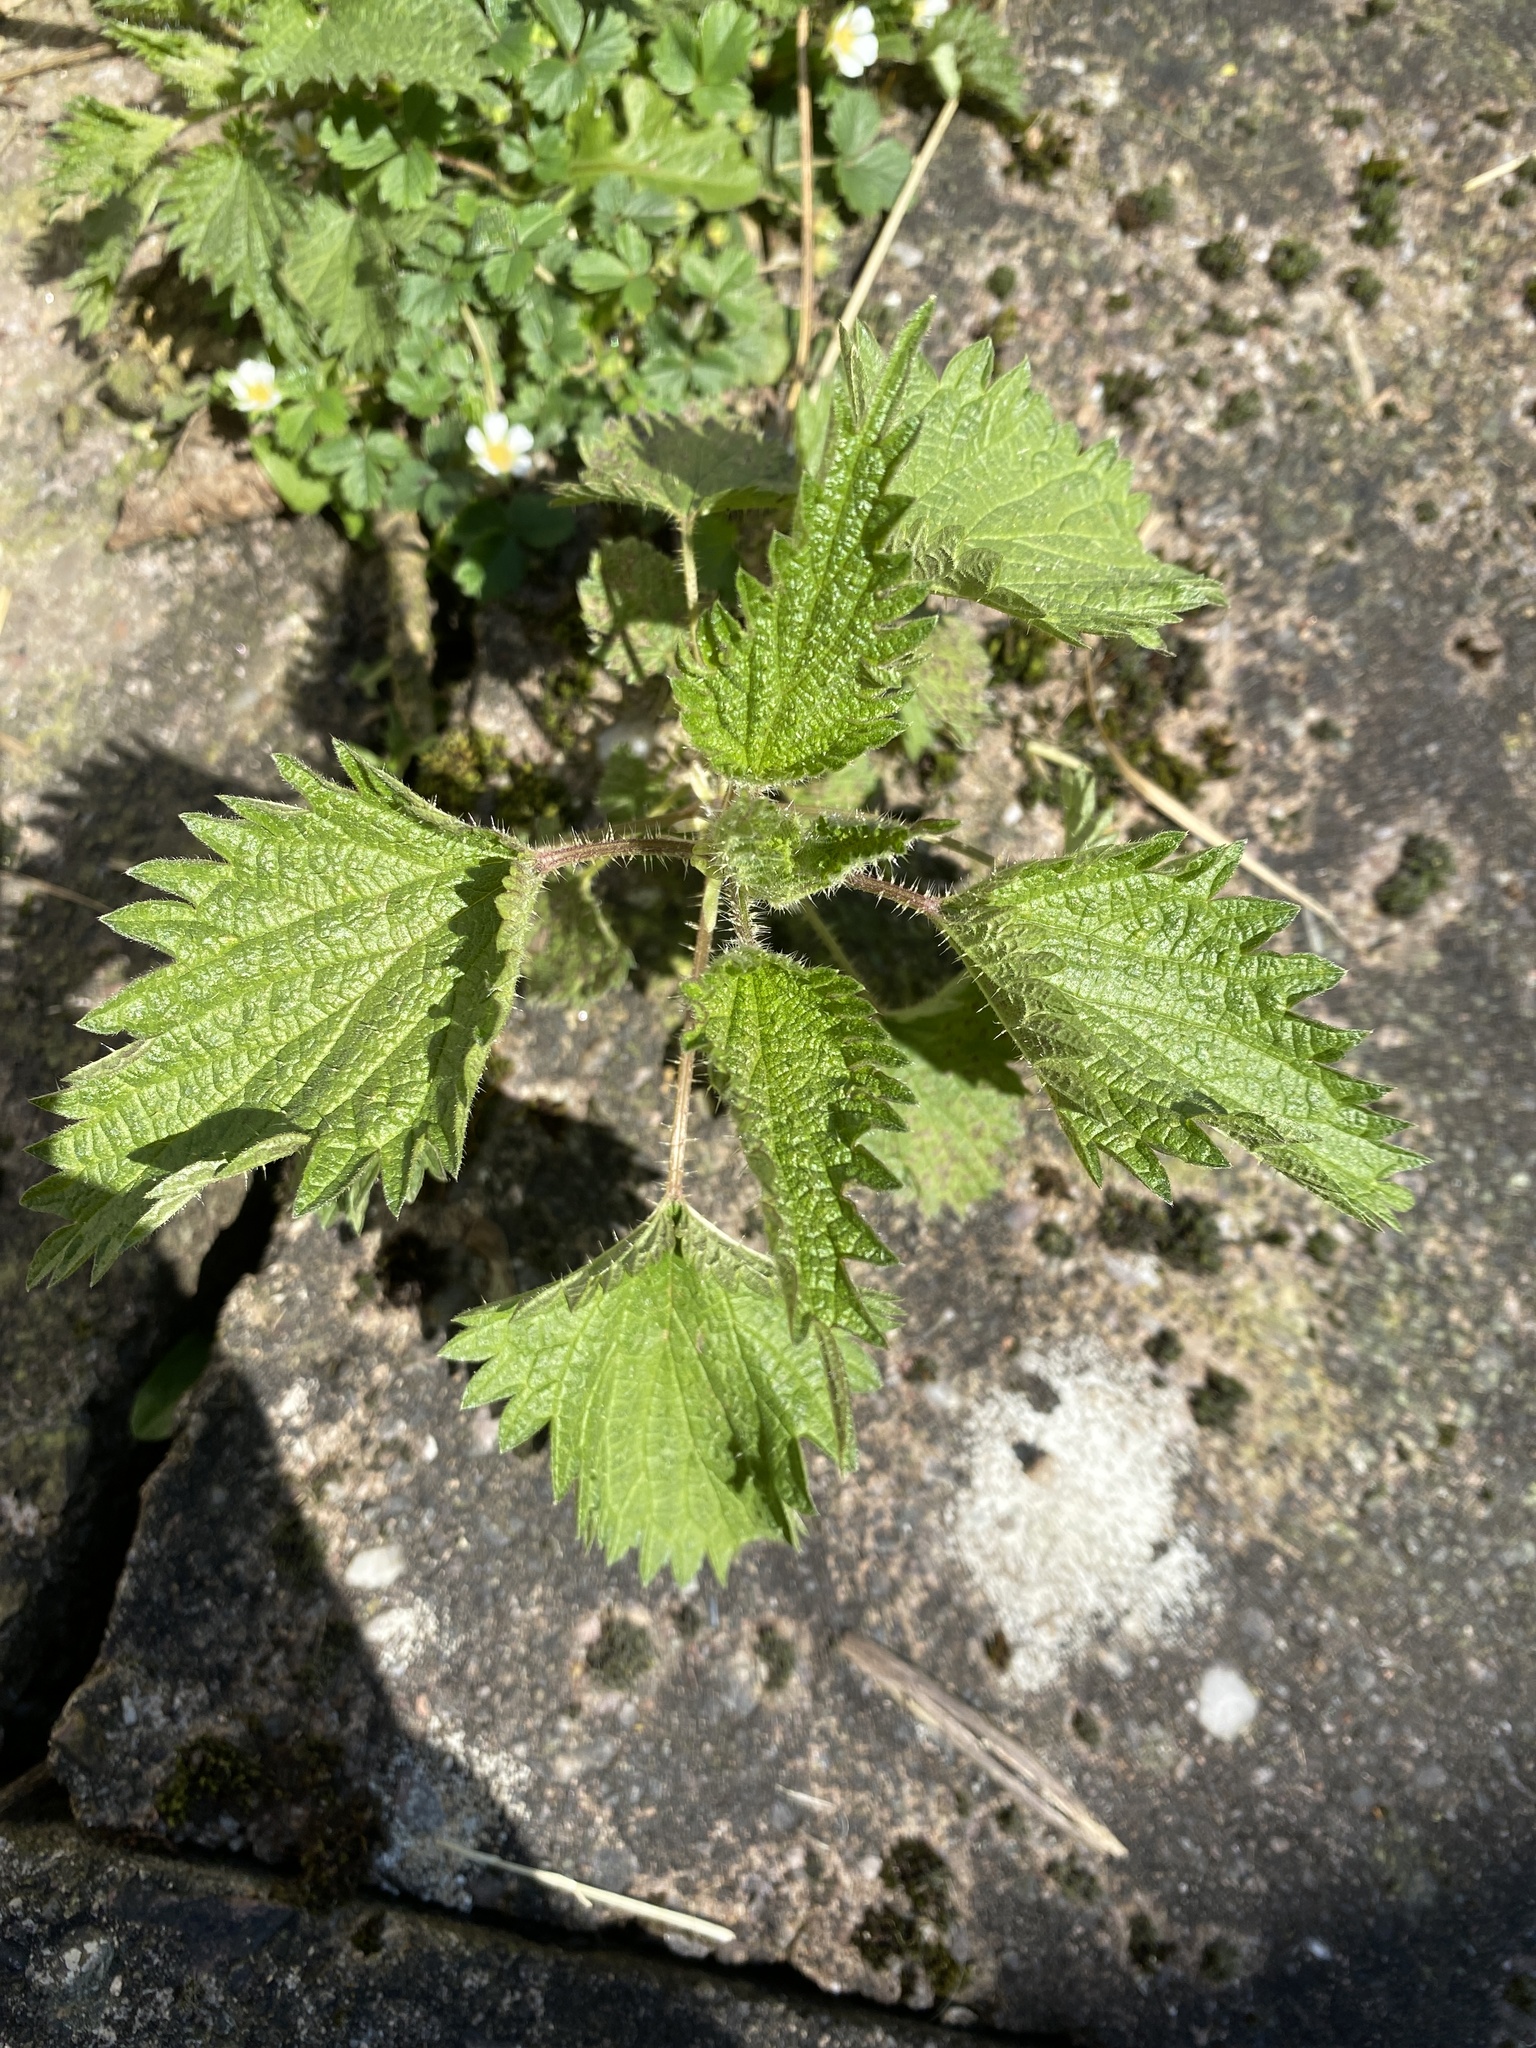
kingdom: Plantae
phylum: Tracheophyta
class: Magnoliopsida
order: Rosales
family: Urticaceae
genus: Urtica
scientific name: Urtica dioica
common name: Common nettle
